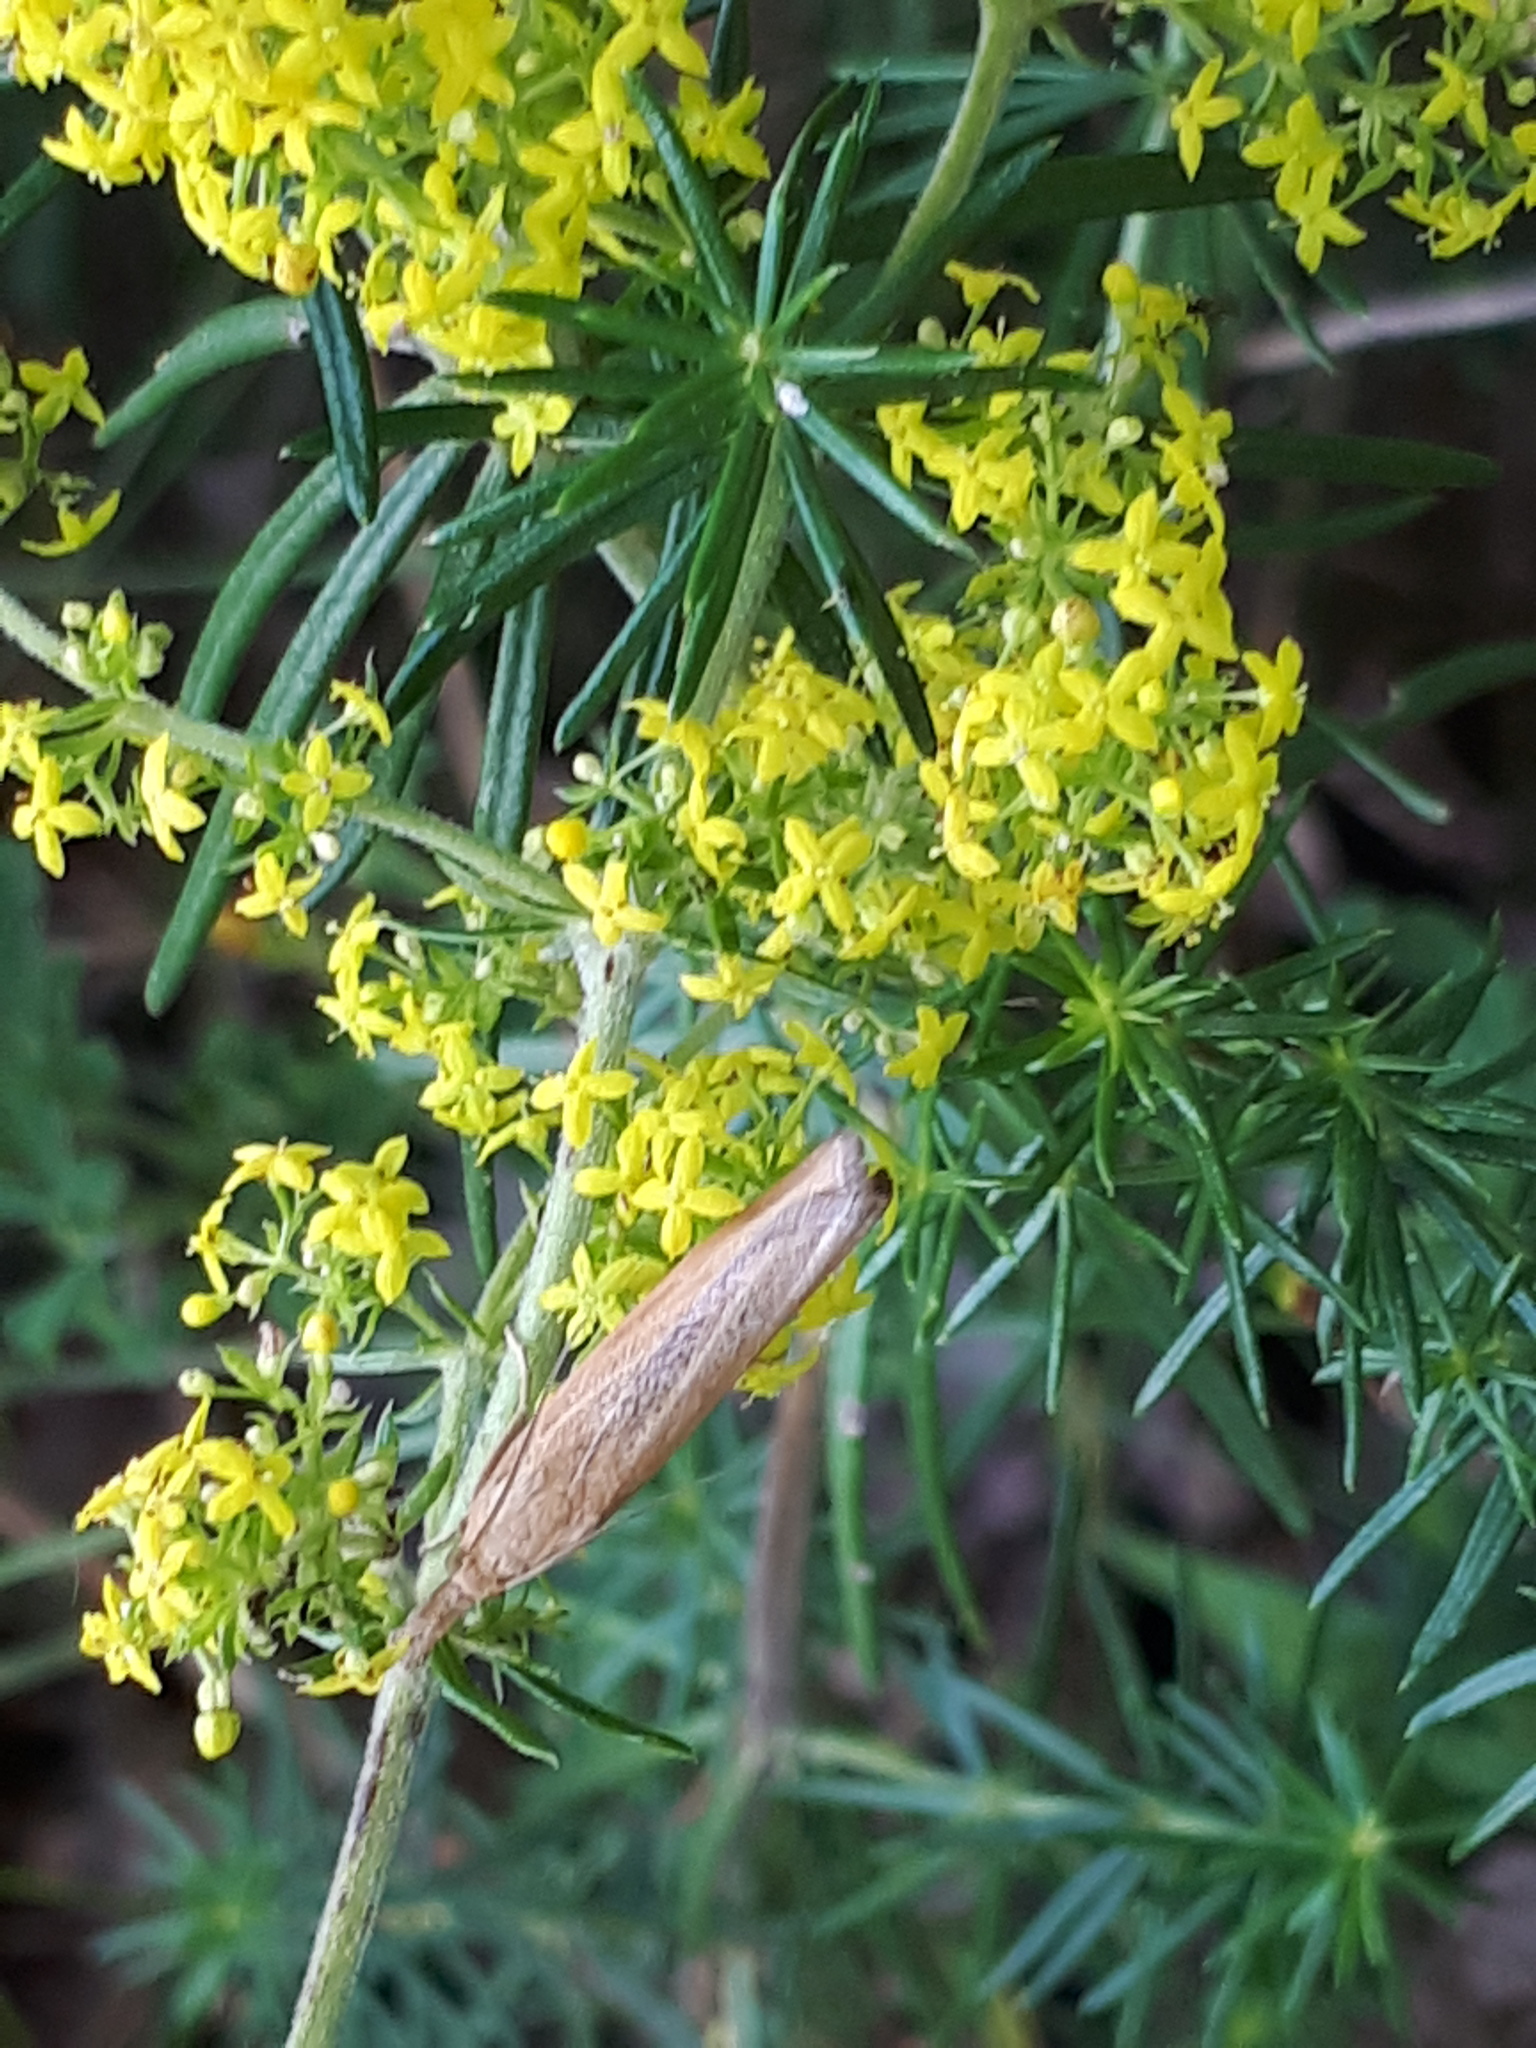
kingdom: Animalia
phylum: Arthropoda
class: Insecta
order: Lepidoptera
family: Crambidae
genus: Pediasia
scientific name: Pediasia luteella
